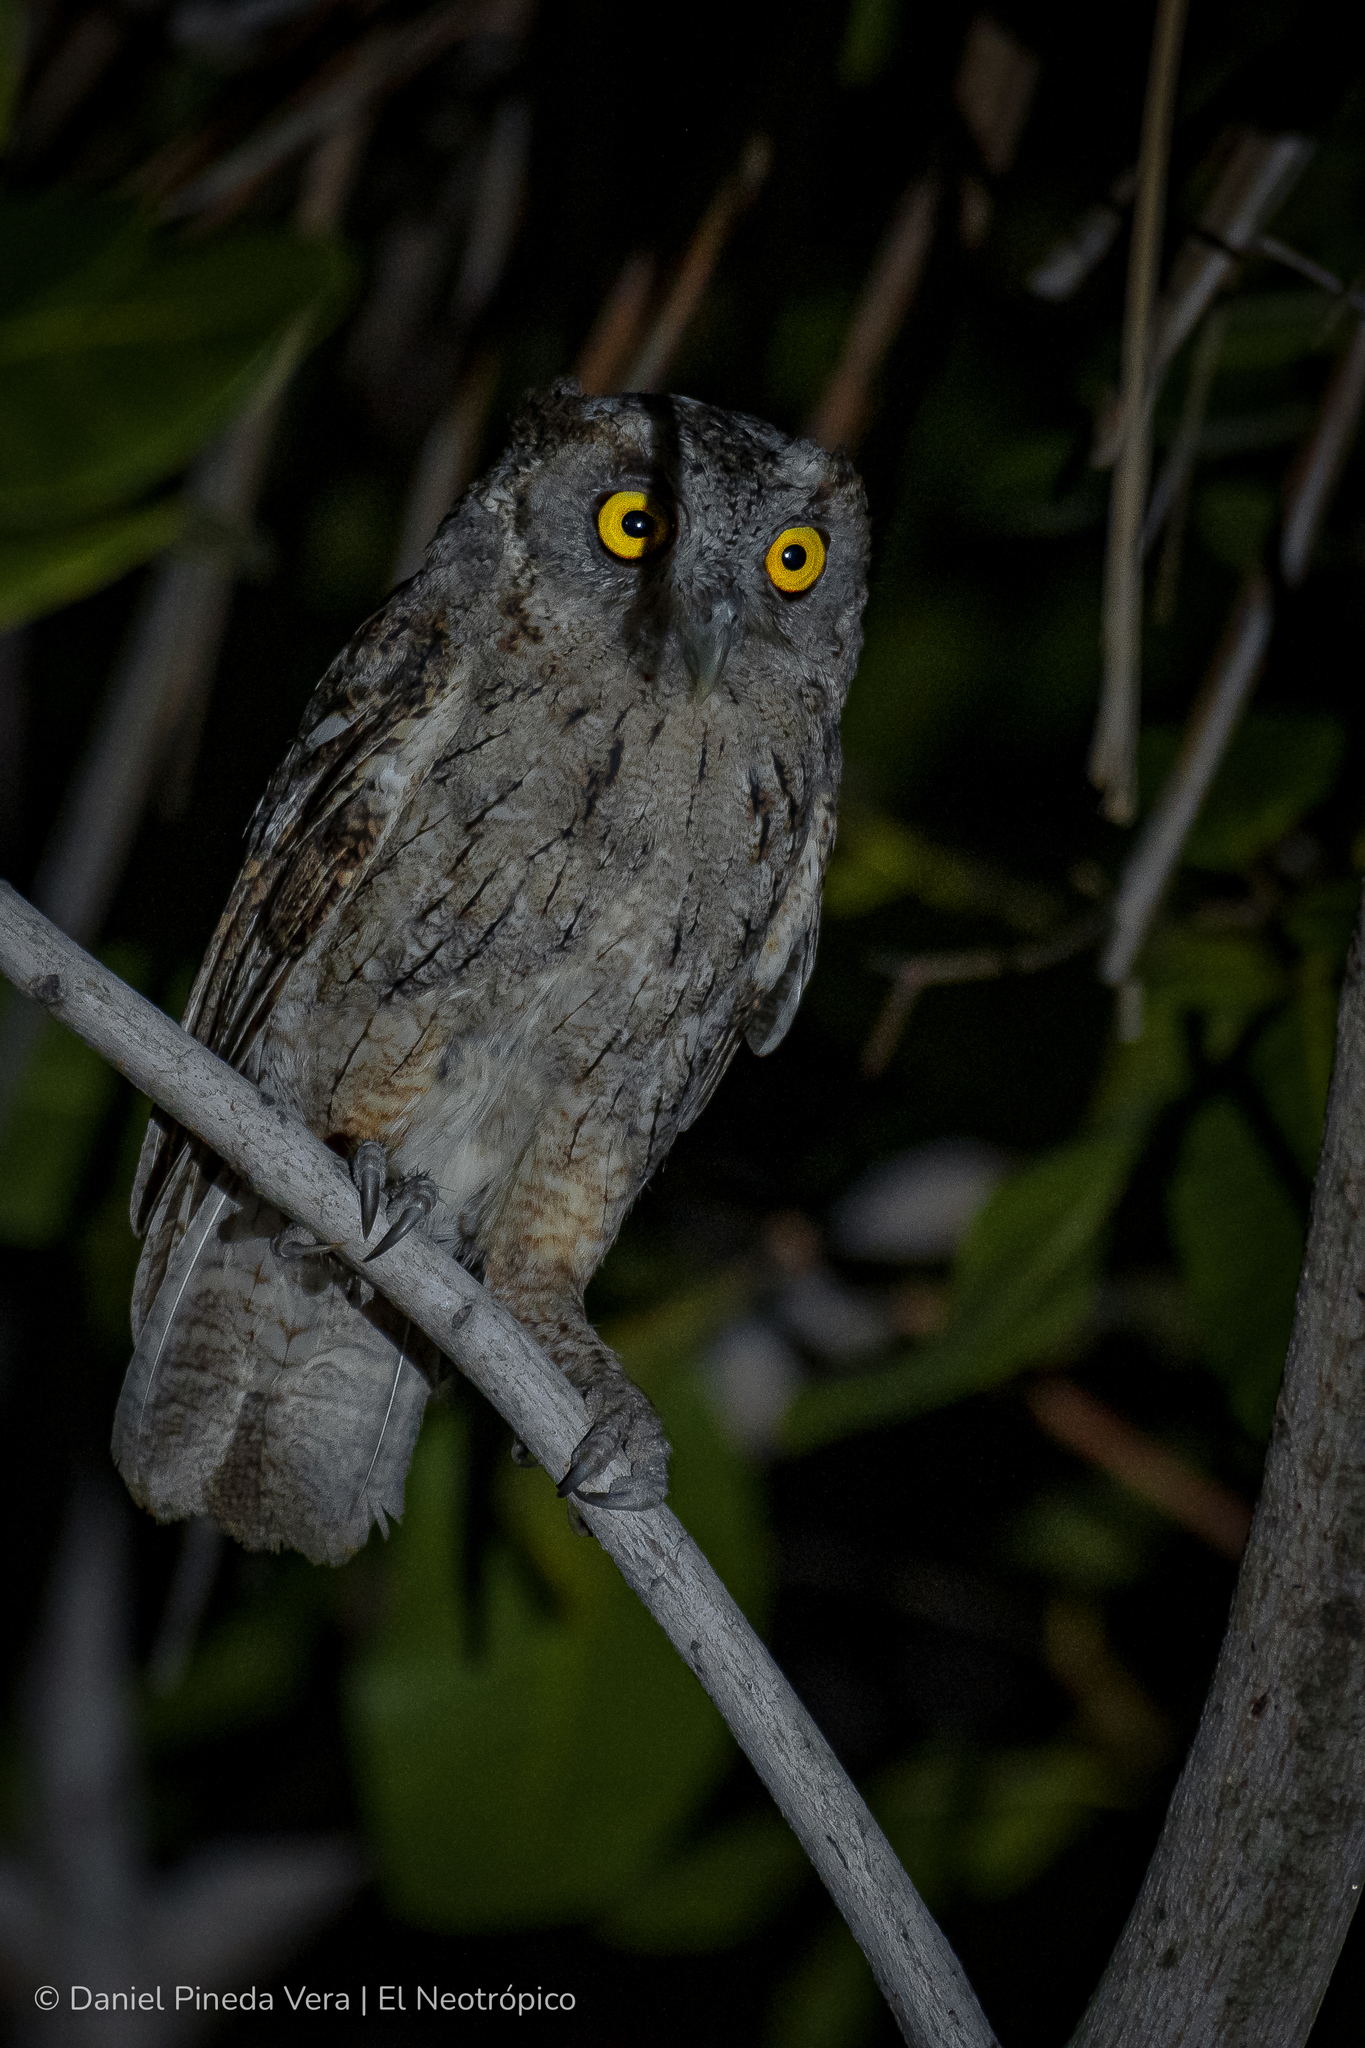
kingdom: Animalia
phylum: Chordata
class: Aves
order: Strigiformes
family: Strigidae
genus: Megascops
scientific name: Megascops cooperi
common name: Pacific screech-owl
